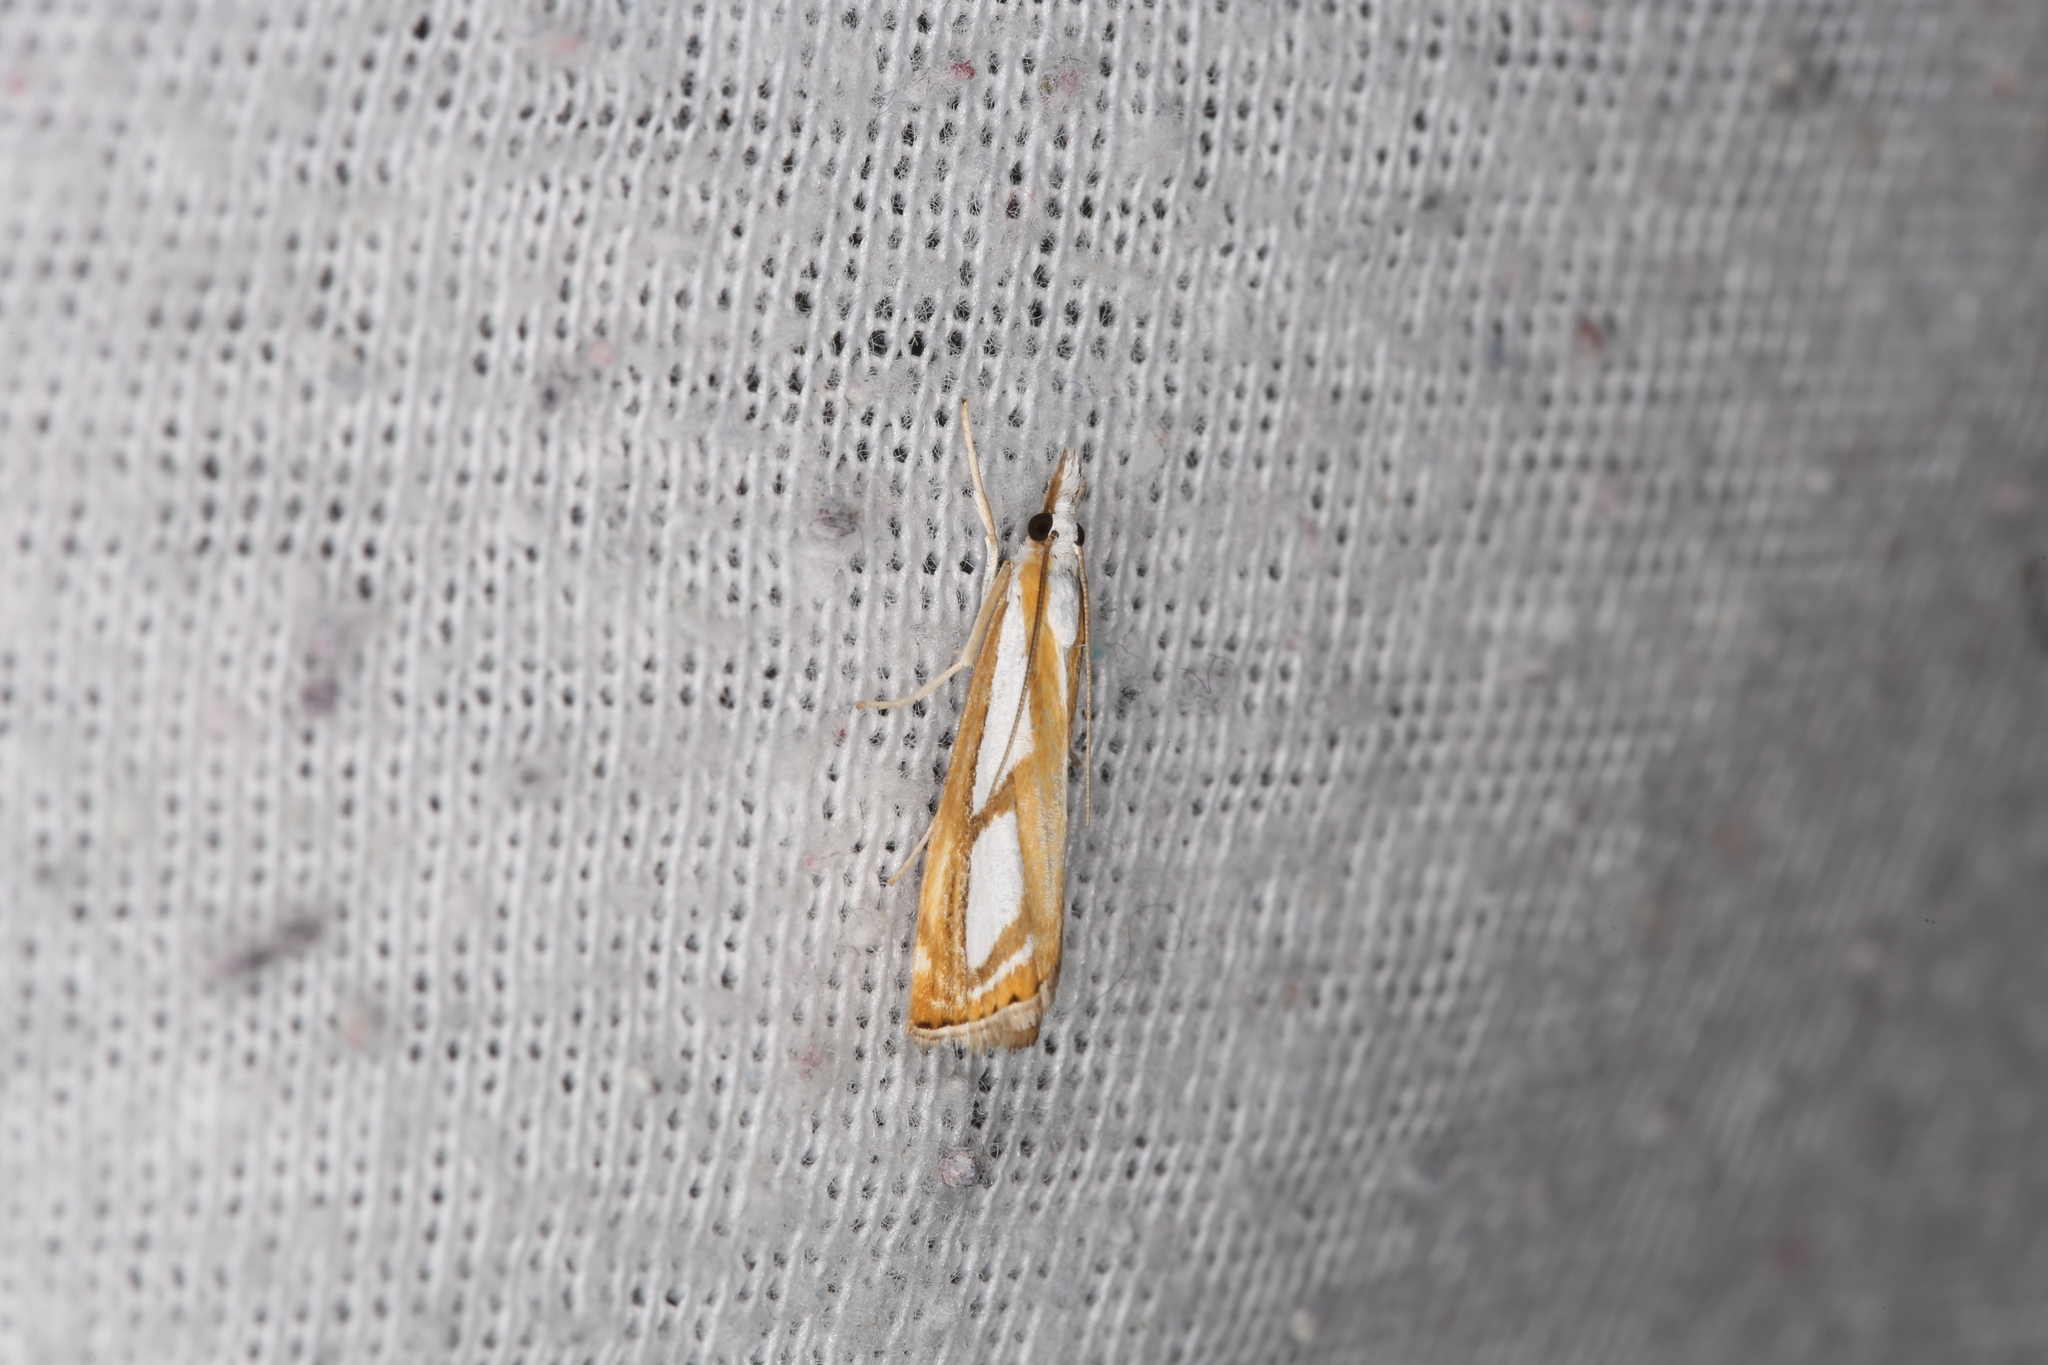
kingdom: Animalia
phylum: Arthropoda
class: Insecta
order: Lepidoptera
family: Crambidae
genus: Catoptria
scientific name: Catoptria
